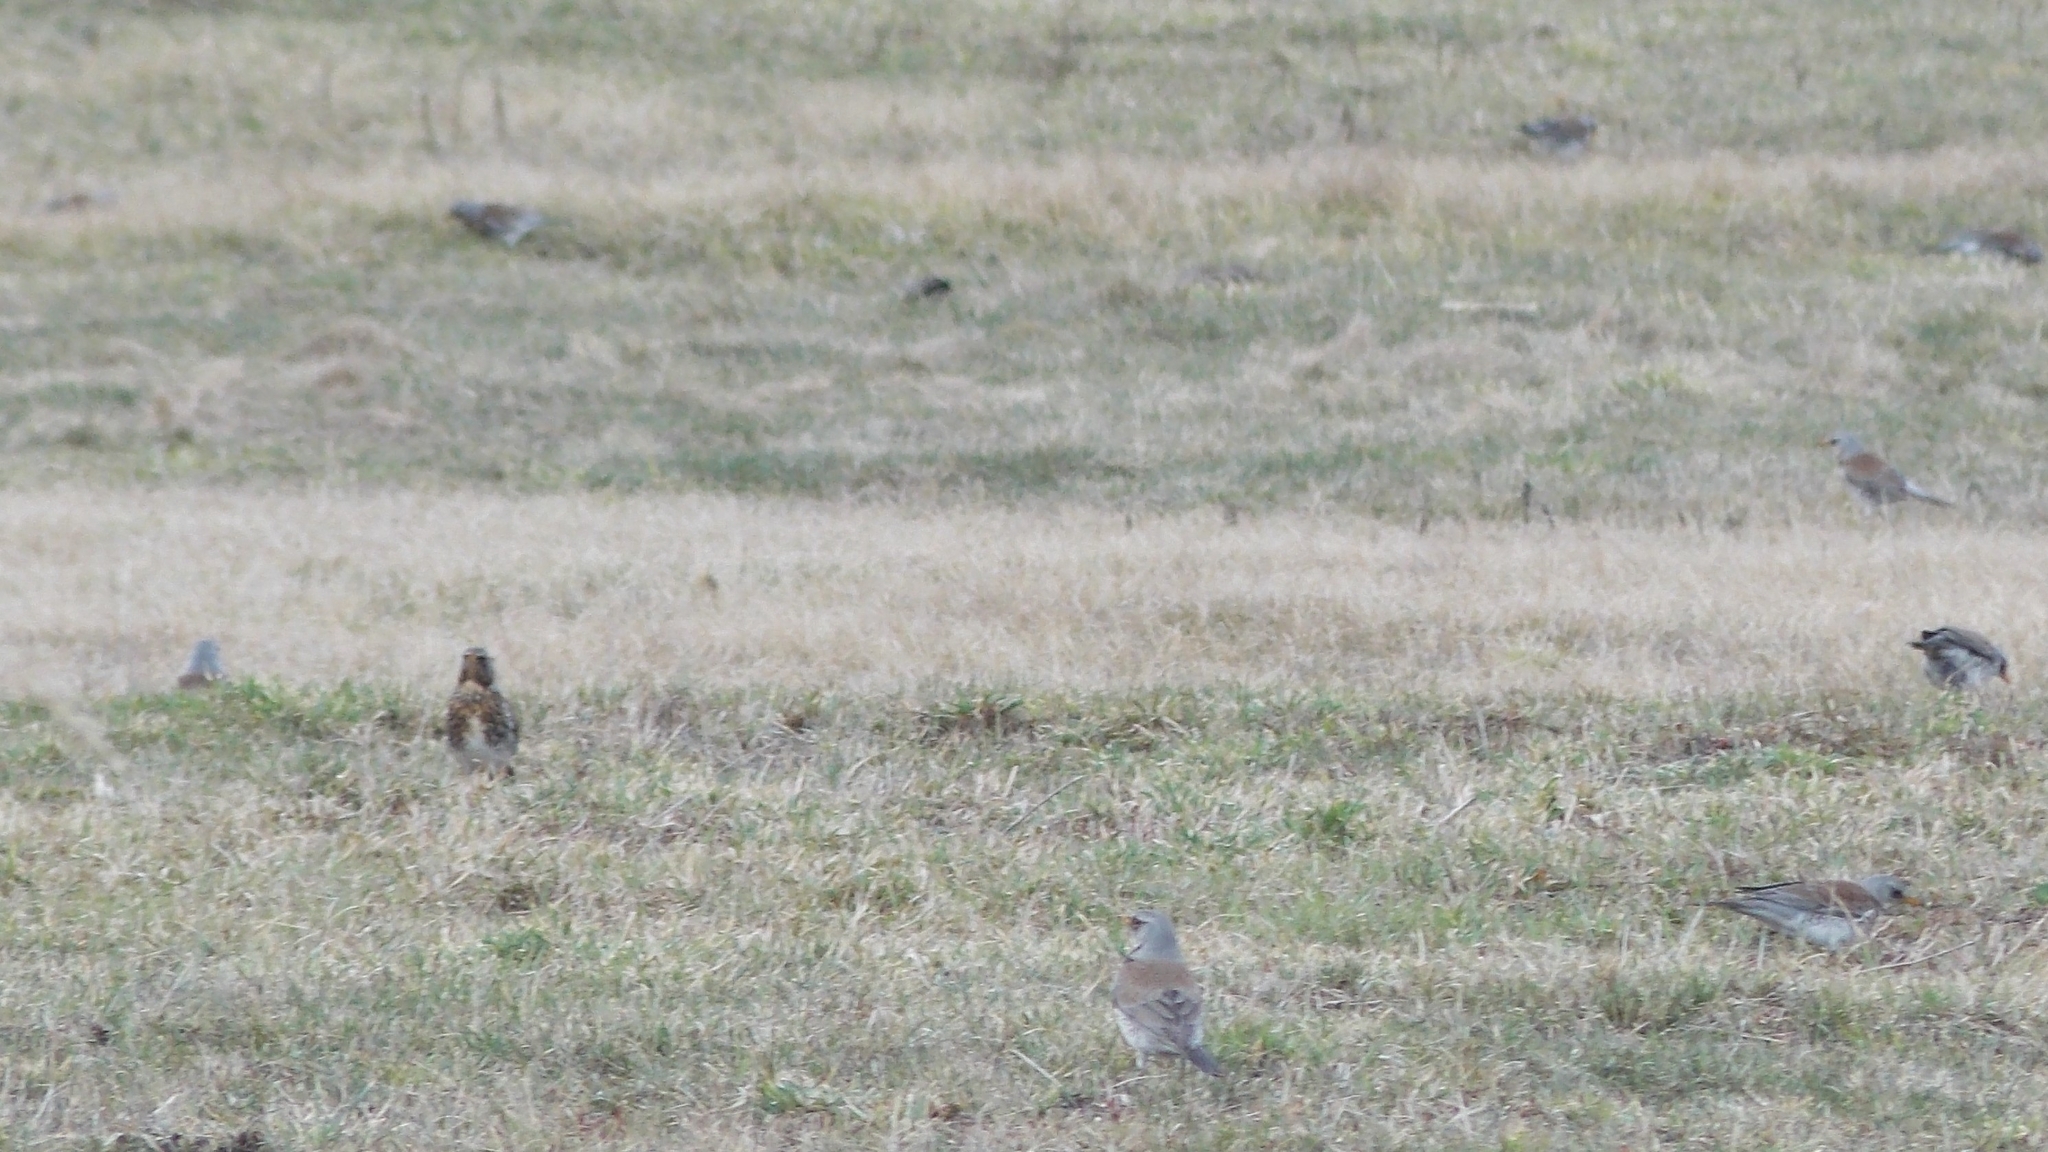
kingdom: Animalia
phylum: Chordata
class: Aves
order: Passeriformes
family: Turdidae
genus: Turdus
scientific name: Turdus pilaris
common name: Fieldfare
